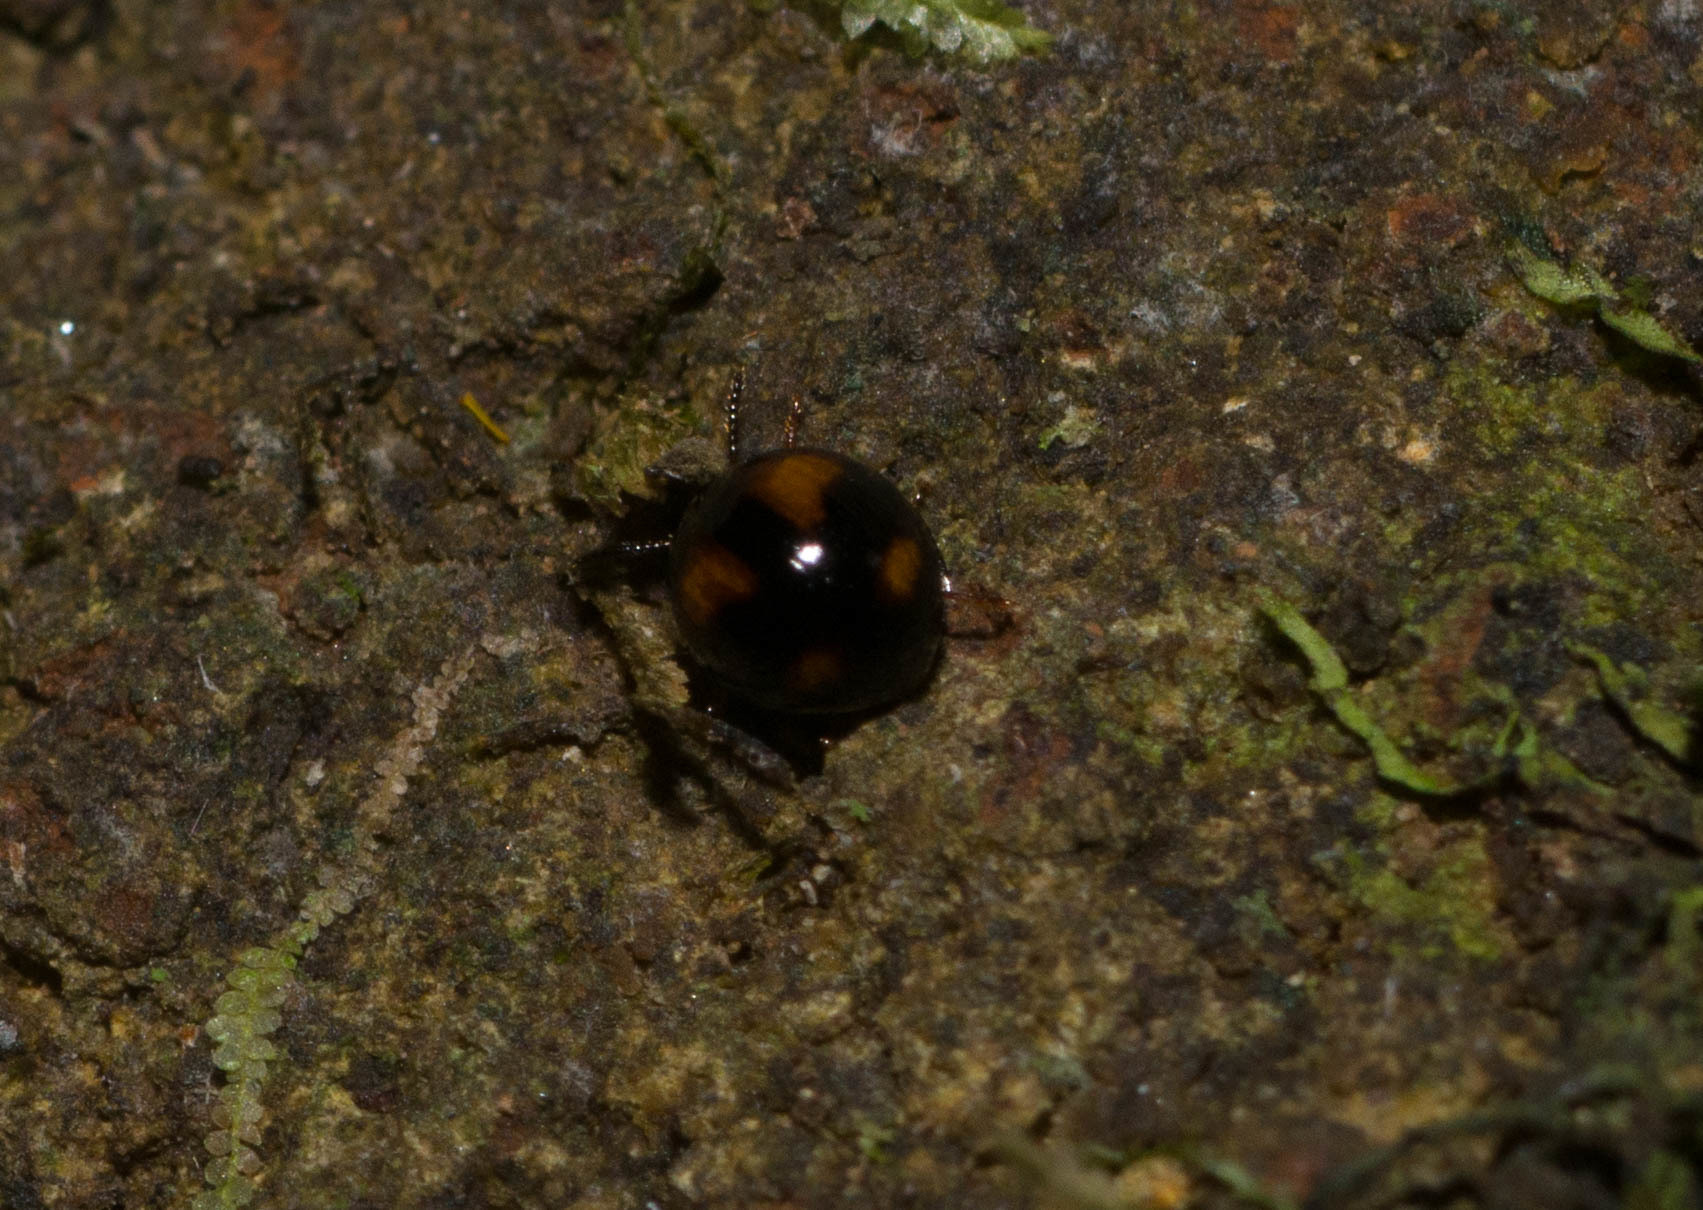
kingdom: Animalia
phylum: Arthropoda
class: Insecta
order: Coleoptera
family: Tenebrionidae
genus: Stethotrypes
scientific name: Stethotrypes
